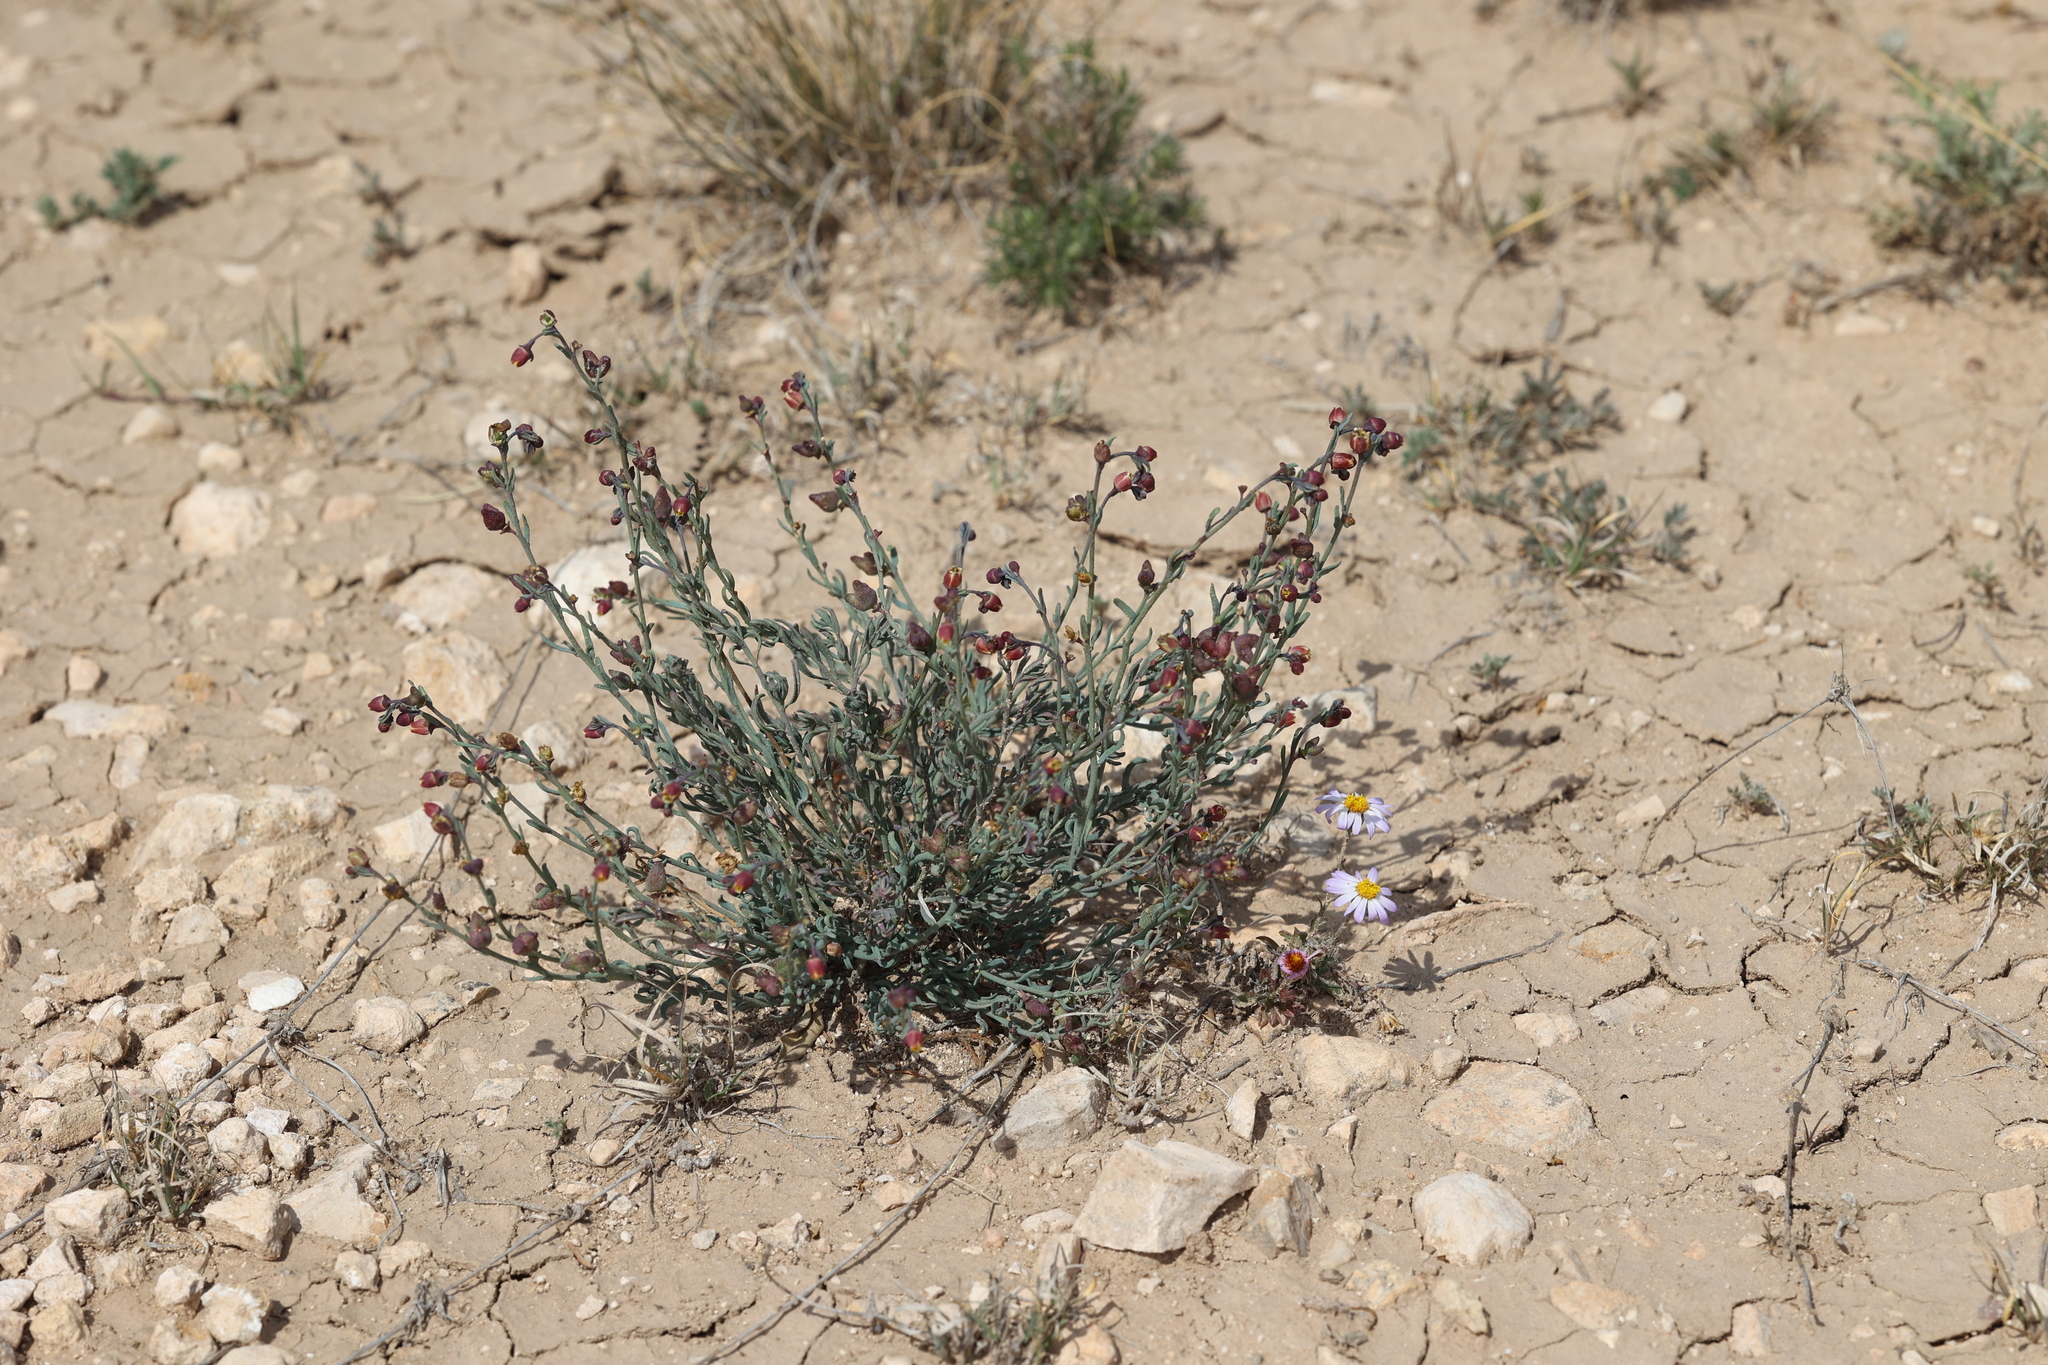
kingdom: Plantae
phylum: Tracheophyta
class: Magnoliopsida
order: Sapindales
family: Rutaceae
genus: Thamnosma
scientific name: Thamnosma texana
